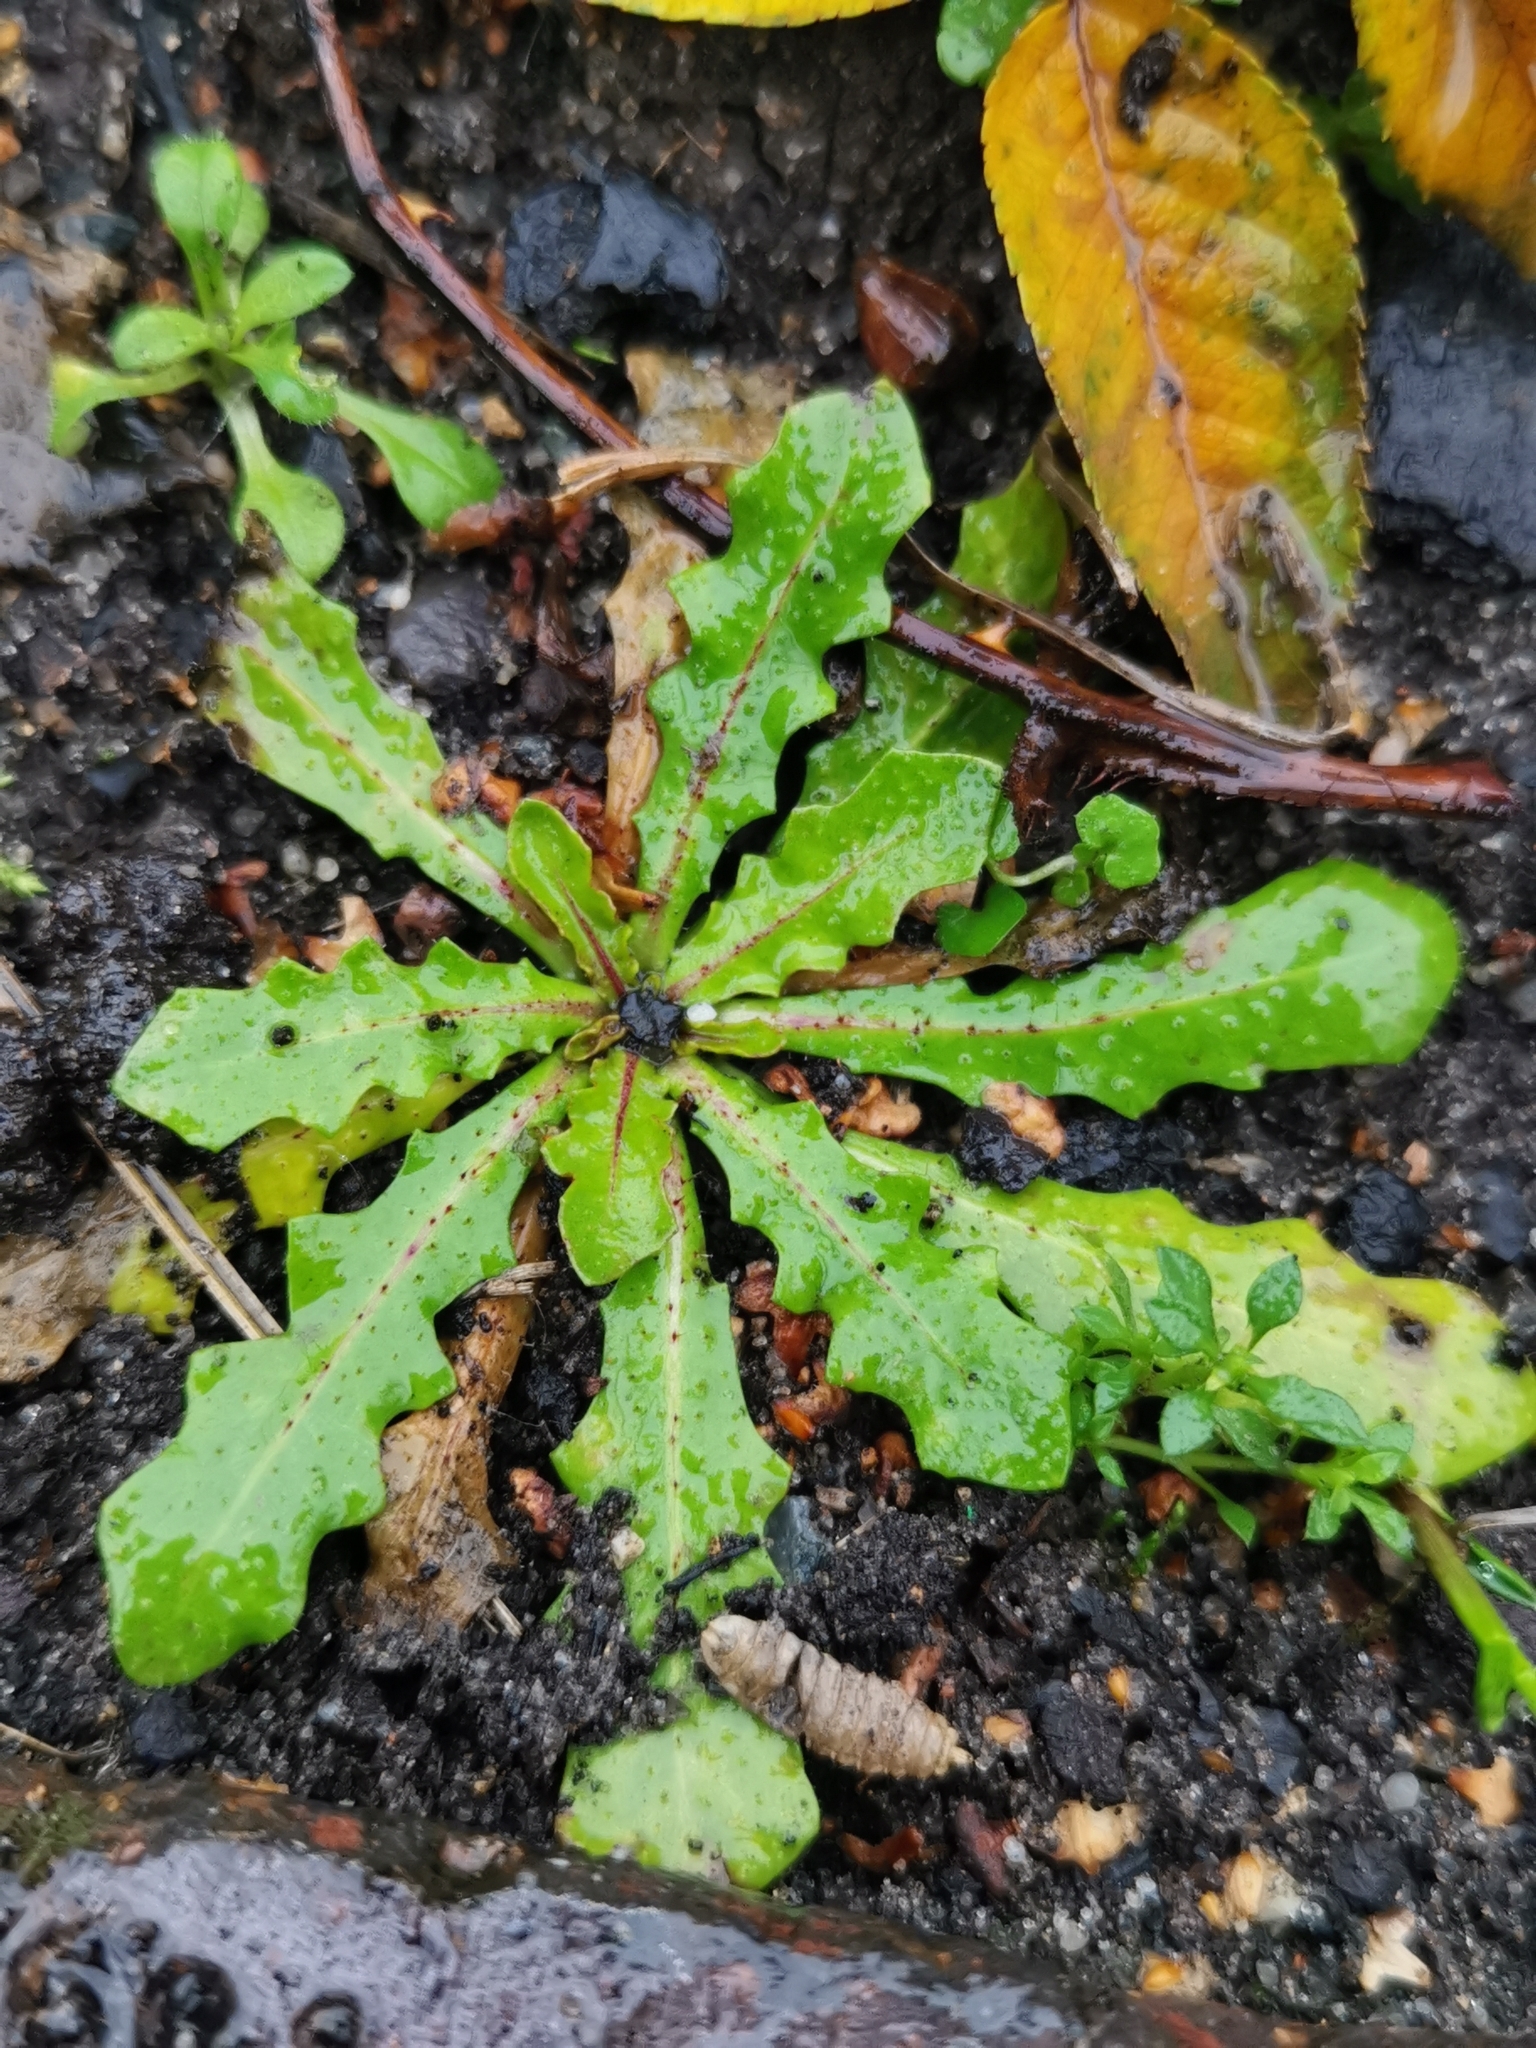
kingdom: Plantae
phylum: Tracheophyta
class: Magnoliopsida
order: Asterales
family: Asteraceae
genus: Hypochaeris
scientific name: Hypochaeris radicata
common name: Flatweed
